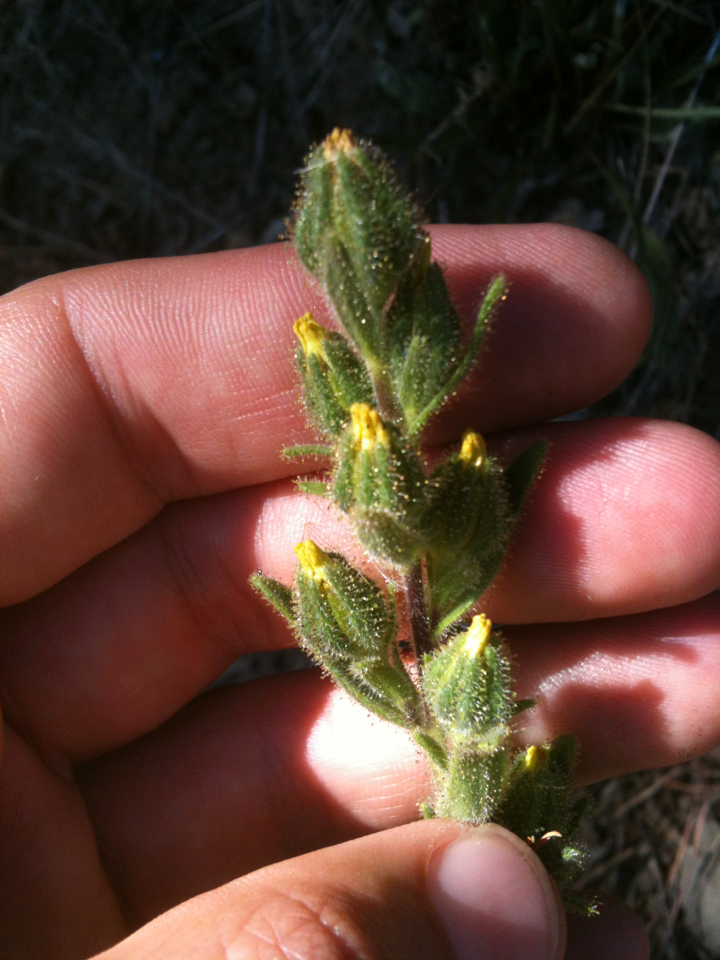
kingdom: Plantae
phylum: Tracheophyta
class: Magnoliopsida
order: Asterales
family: Asteraceae
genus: Madia
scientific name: Madia sativa
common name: Coast tarweed
